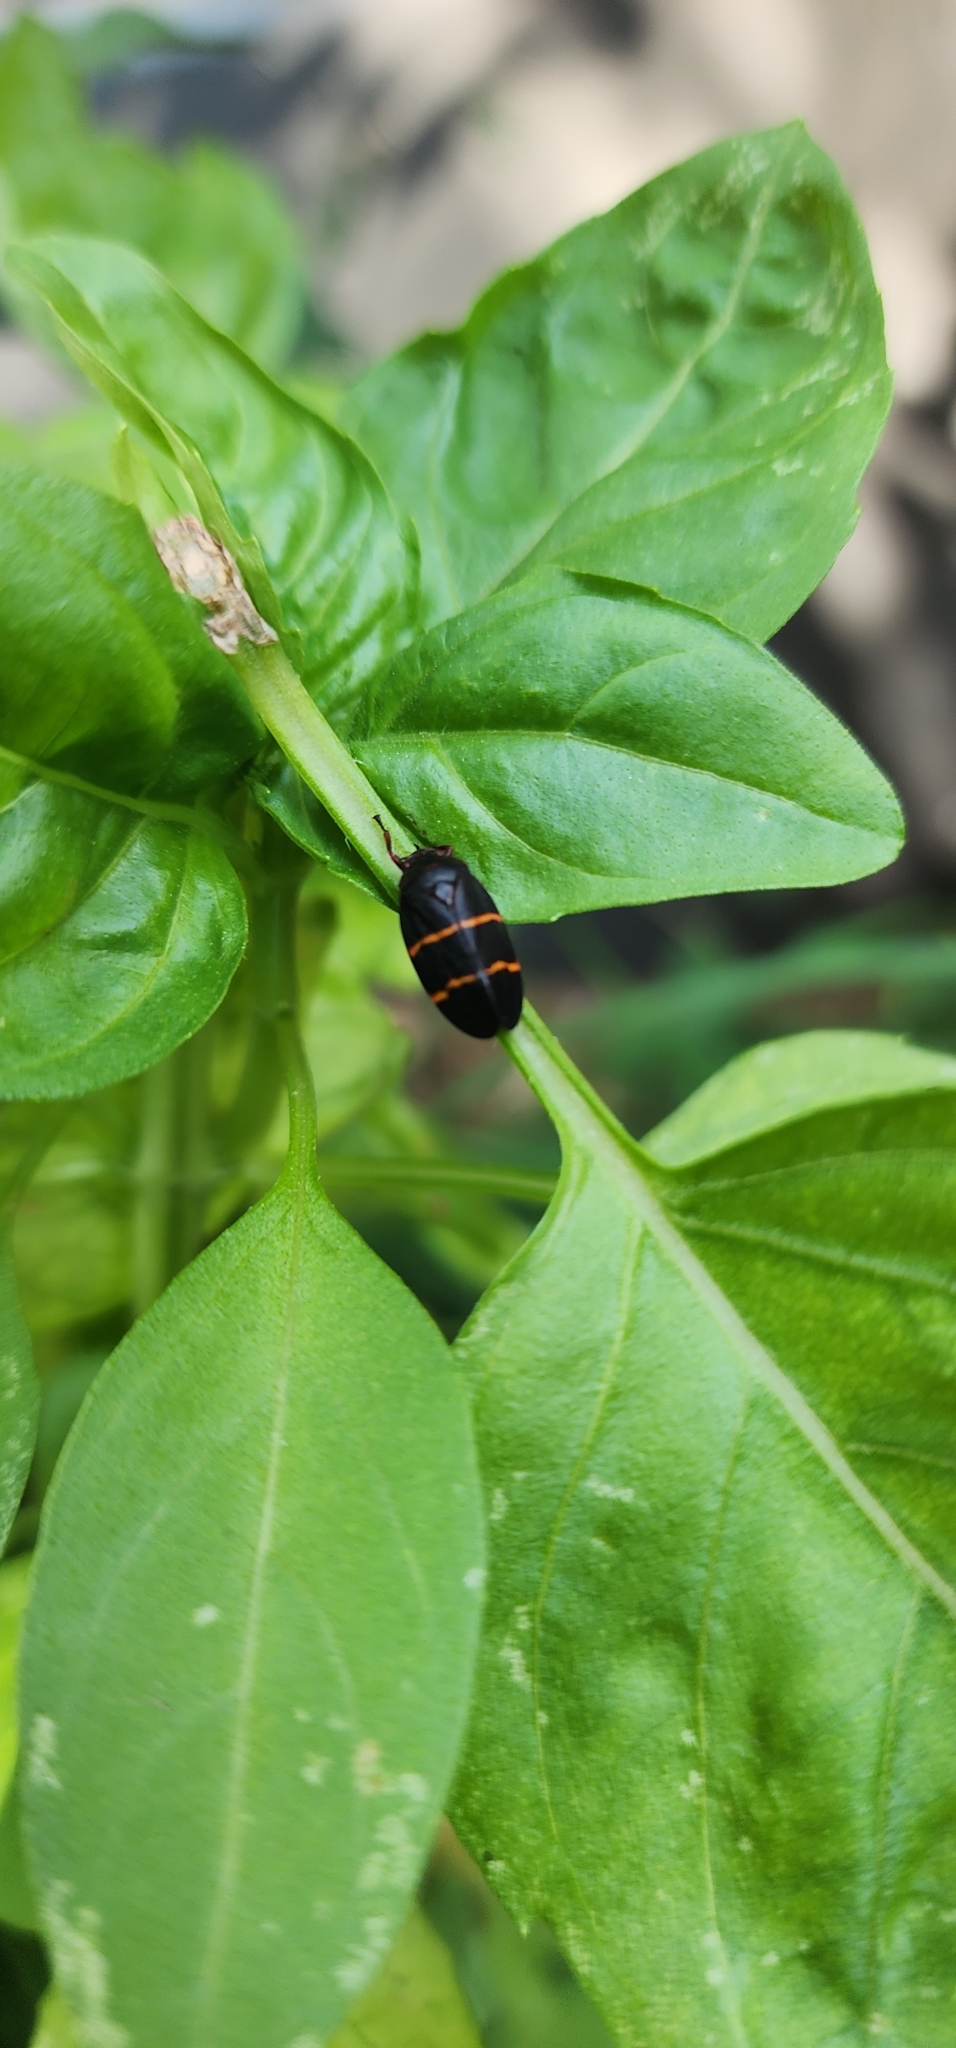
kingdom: Animalia
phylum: Arthropoda
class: Insecta
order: Hemiptera
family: Cercopidae
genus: Prosapia
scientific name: Prosapia bicincta
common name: Twolined spittlebug
